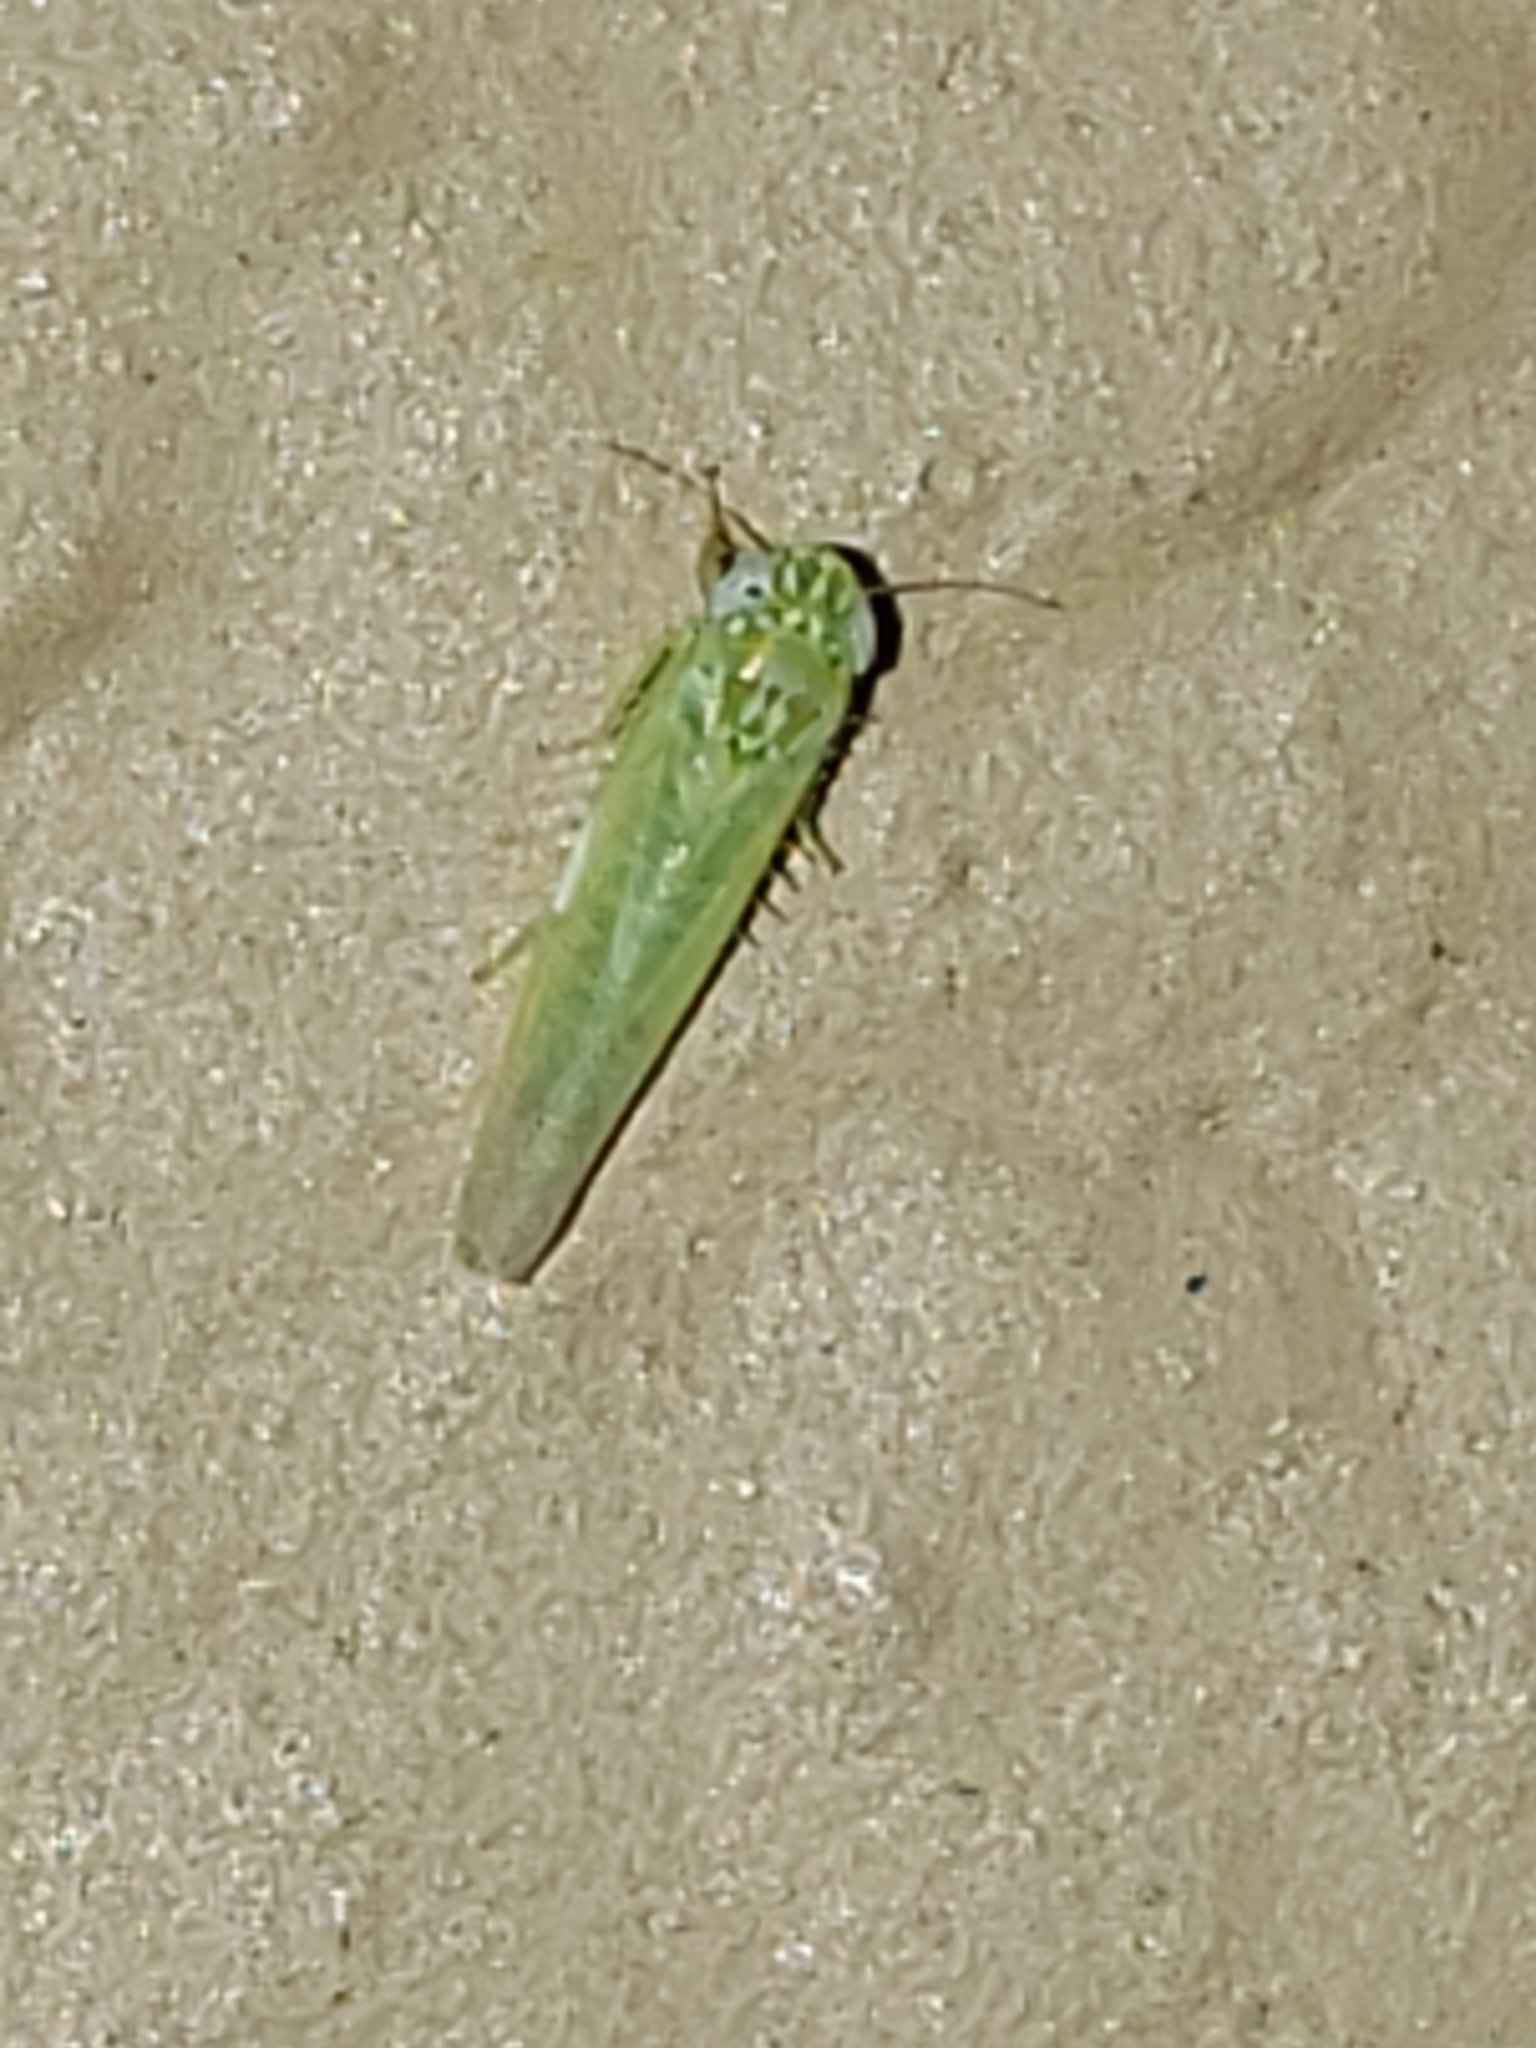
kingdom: Animalia
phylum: Arthropoda
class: Insecta
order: Hemiptera
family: Cicadellidae
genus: Empoasca
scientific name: Empoasca fabae
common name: Potato leafhopper
